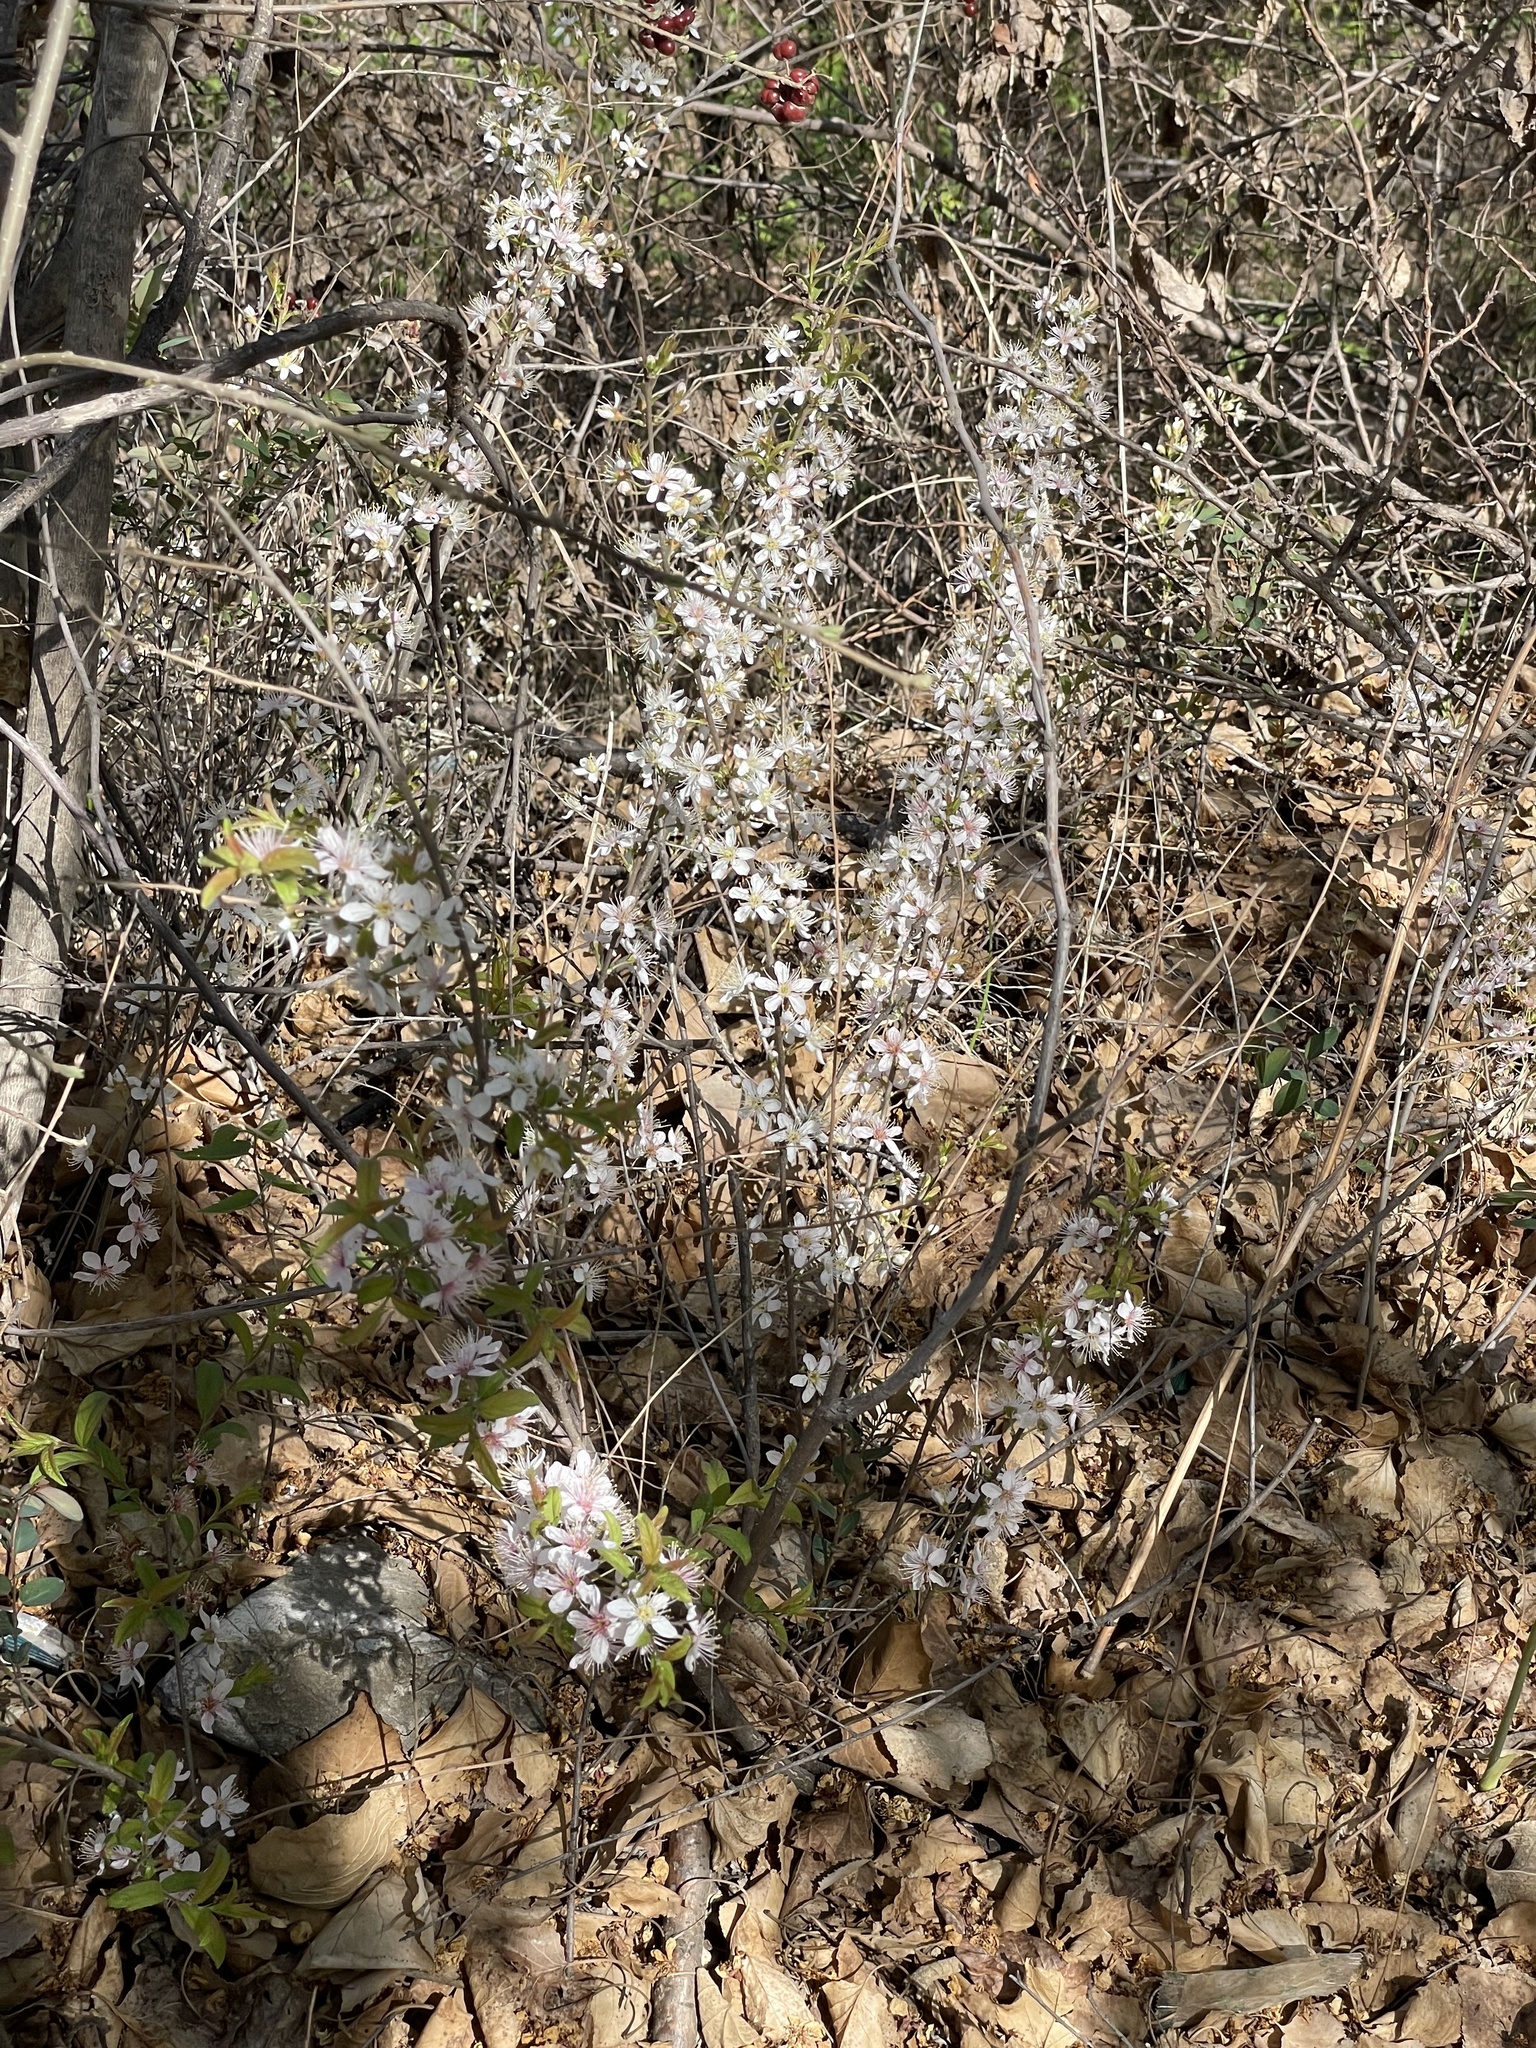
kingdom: Plantae
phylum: Tracheophyta
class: Magnoliopsida
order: Rosales
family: Rosaceae
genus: Prunus
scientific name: Prunus humilis
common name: Humble bush cherry
